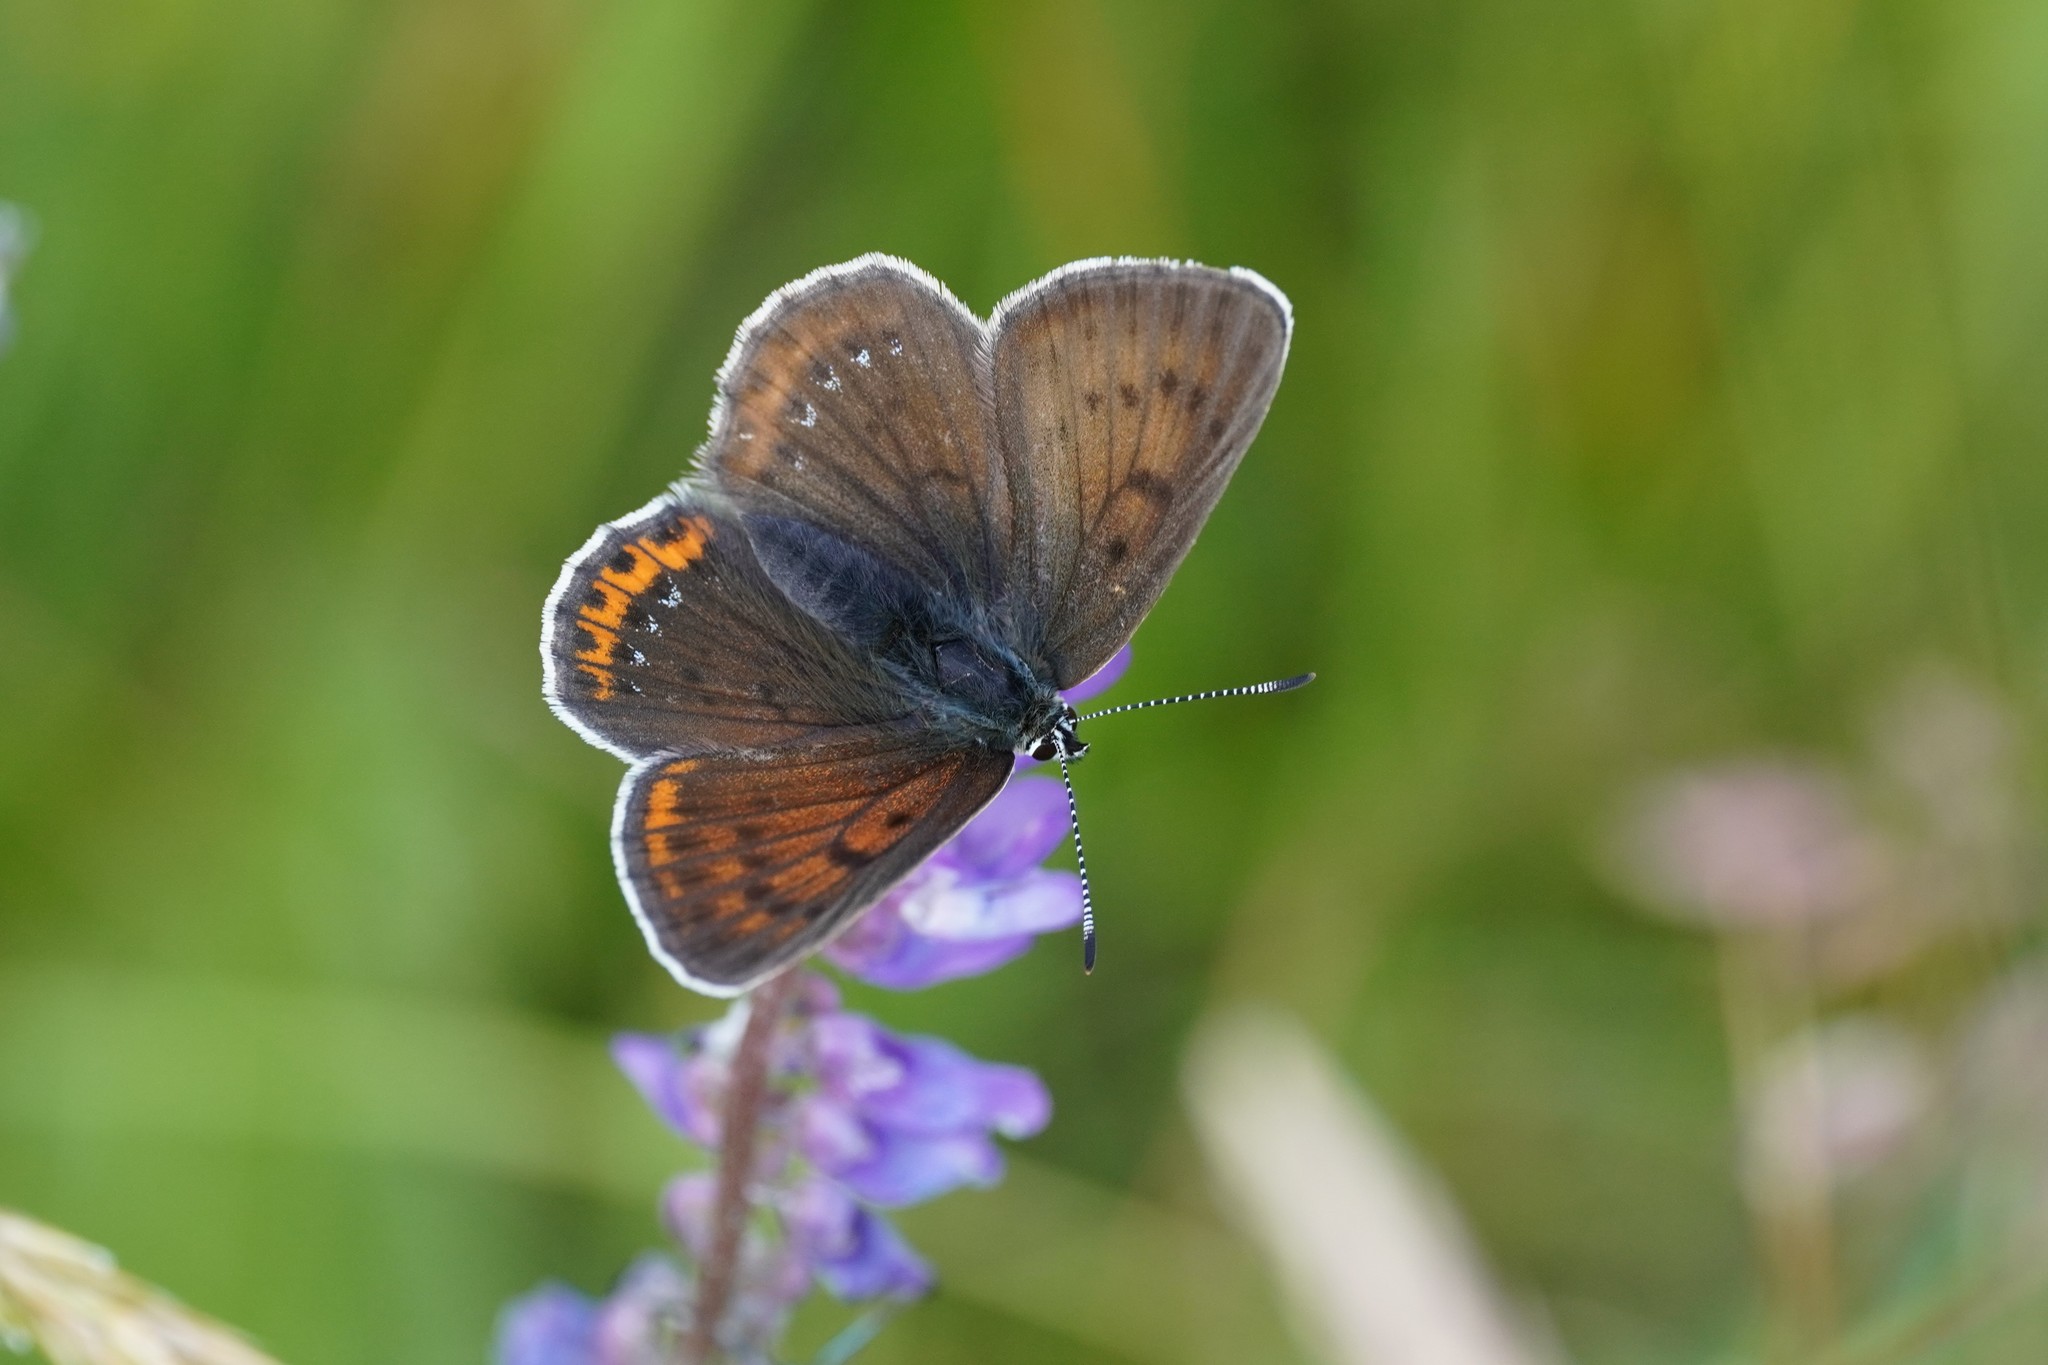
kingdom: Animalia
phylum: Arthropoda
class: Insecta
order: Lepidoptera
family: Lycaenidae
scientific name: Lycaenidae
